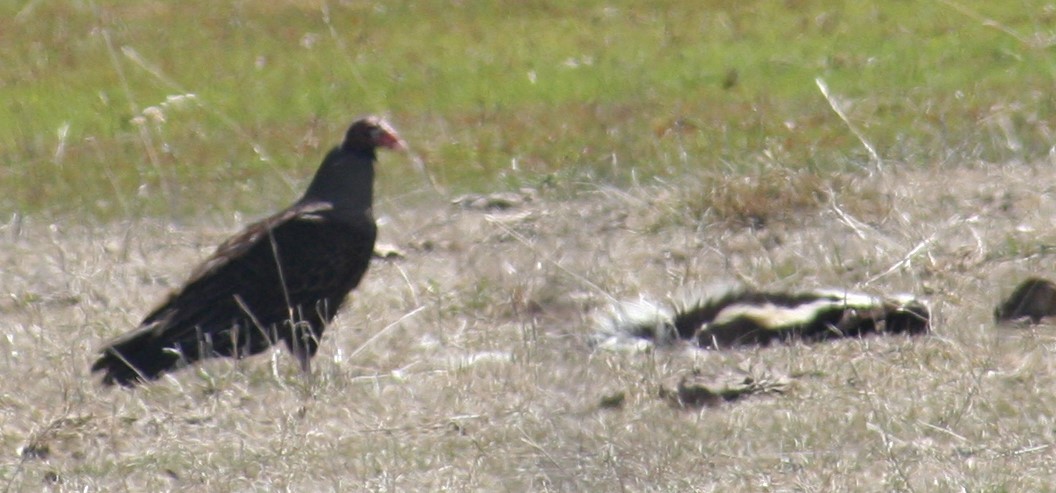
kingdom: Animalia
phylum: Chordata
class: Aves
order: Accipitriformes
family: Cathartidae
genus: Cathartes
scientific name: Cathartes aura
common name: Turkey vulture
